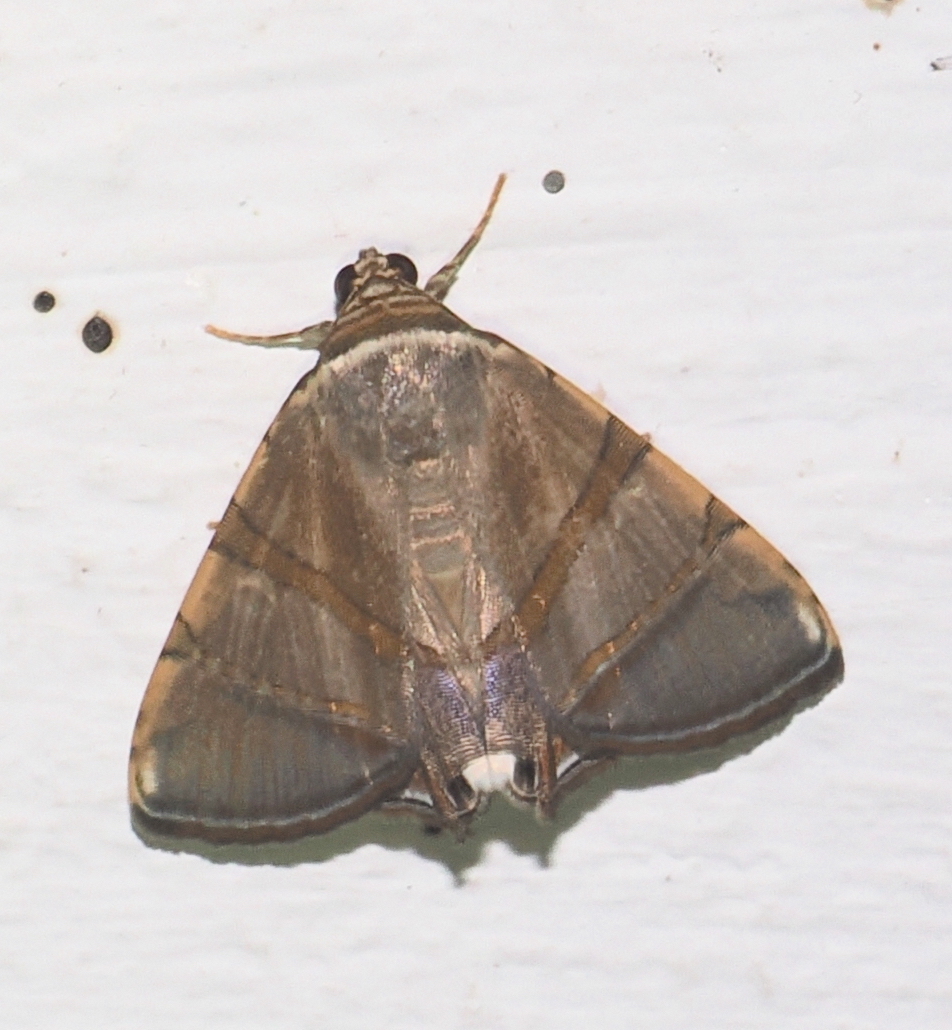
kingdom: Animalia
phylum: Arthropoda
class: Insecta
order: Lepidoptera
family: Erebidae
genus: Eulepidotis
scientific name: Eulepidotis juncida
